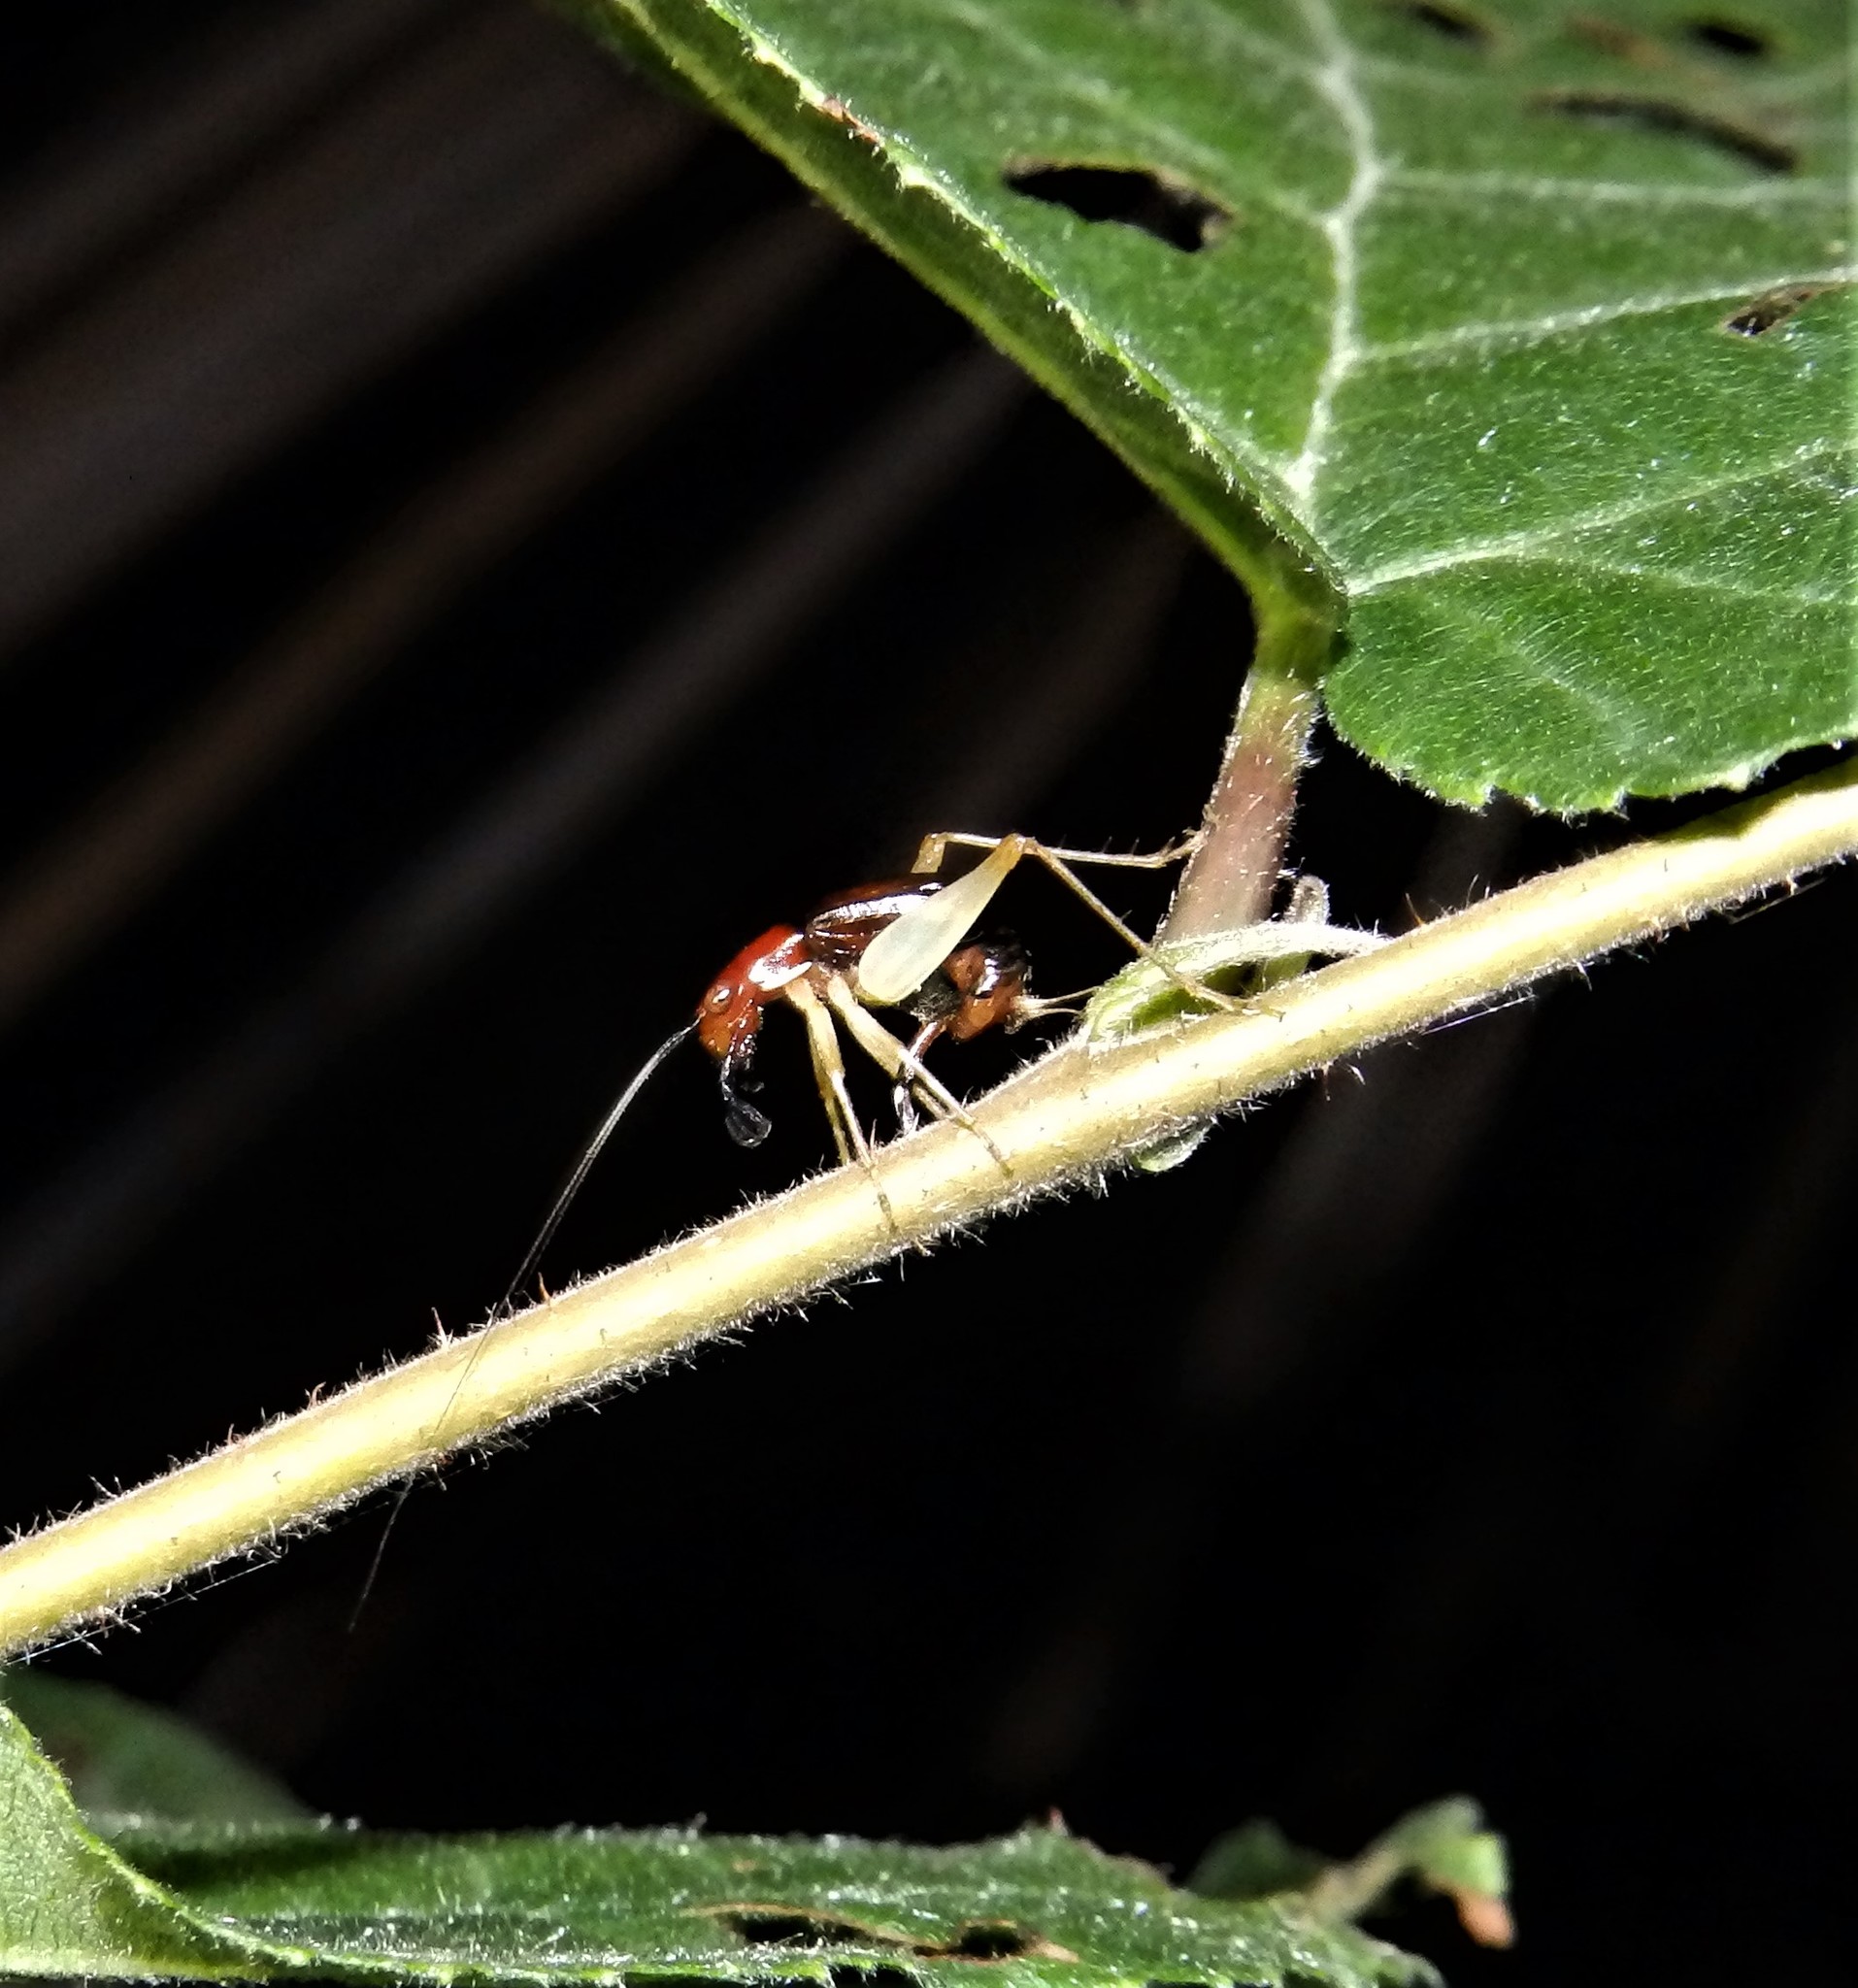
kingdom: Animalia
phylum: Arthropoda
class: Insecta
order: Orthoptera
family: Trigonidiidae
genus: Phyllopalpus
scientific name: Phyllopalpus pulchellus
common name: Handsome trig
